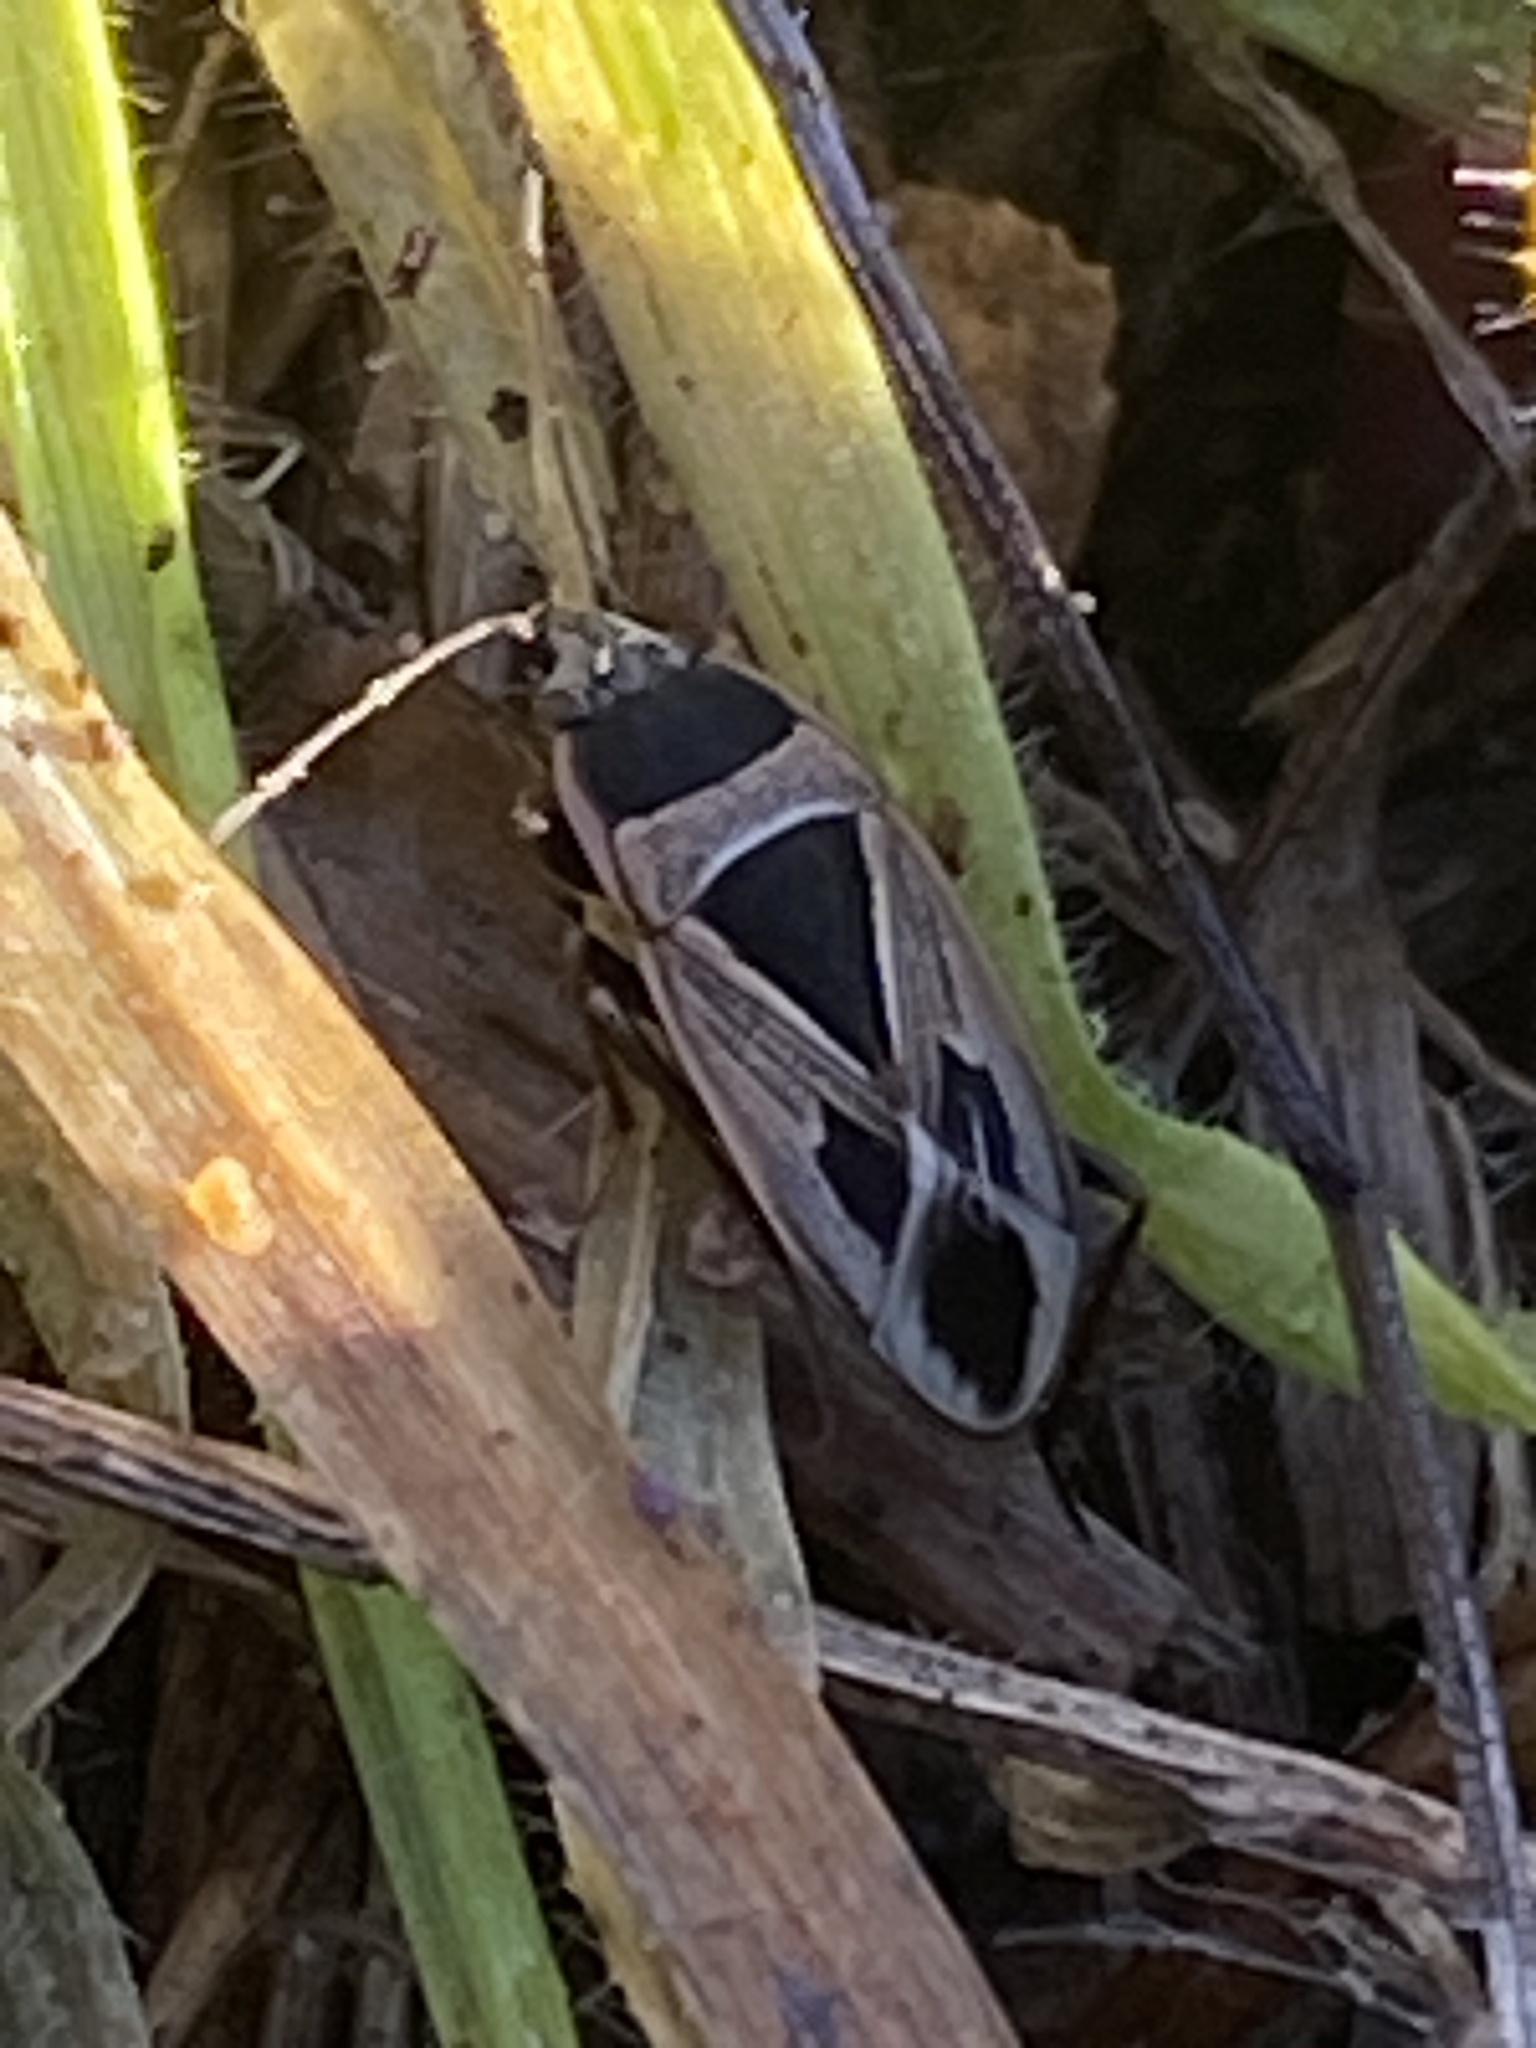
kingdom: Animalia
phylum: Arthropoda
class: Insecta
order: Hemiptera
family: Rhyparochromidae
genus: Xanthochilus
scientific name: Xanthochilus saturnius
